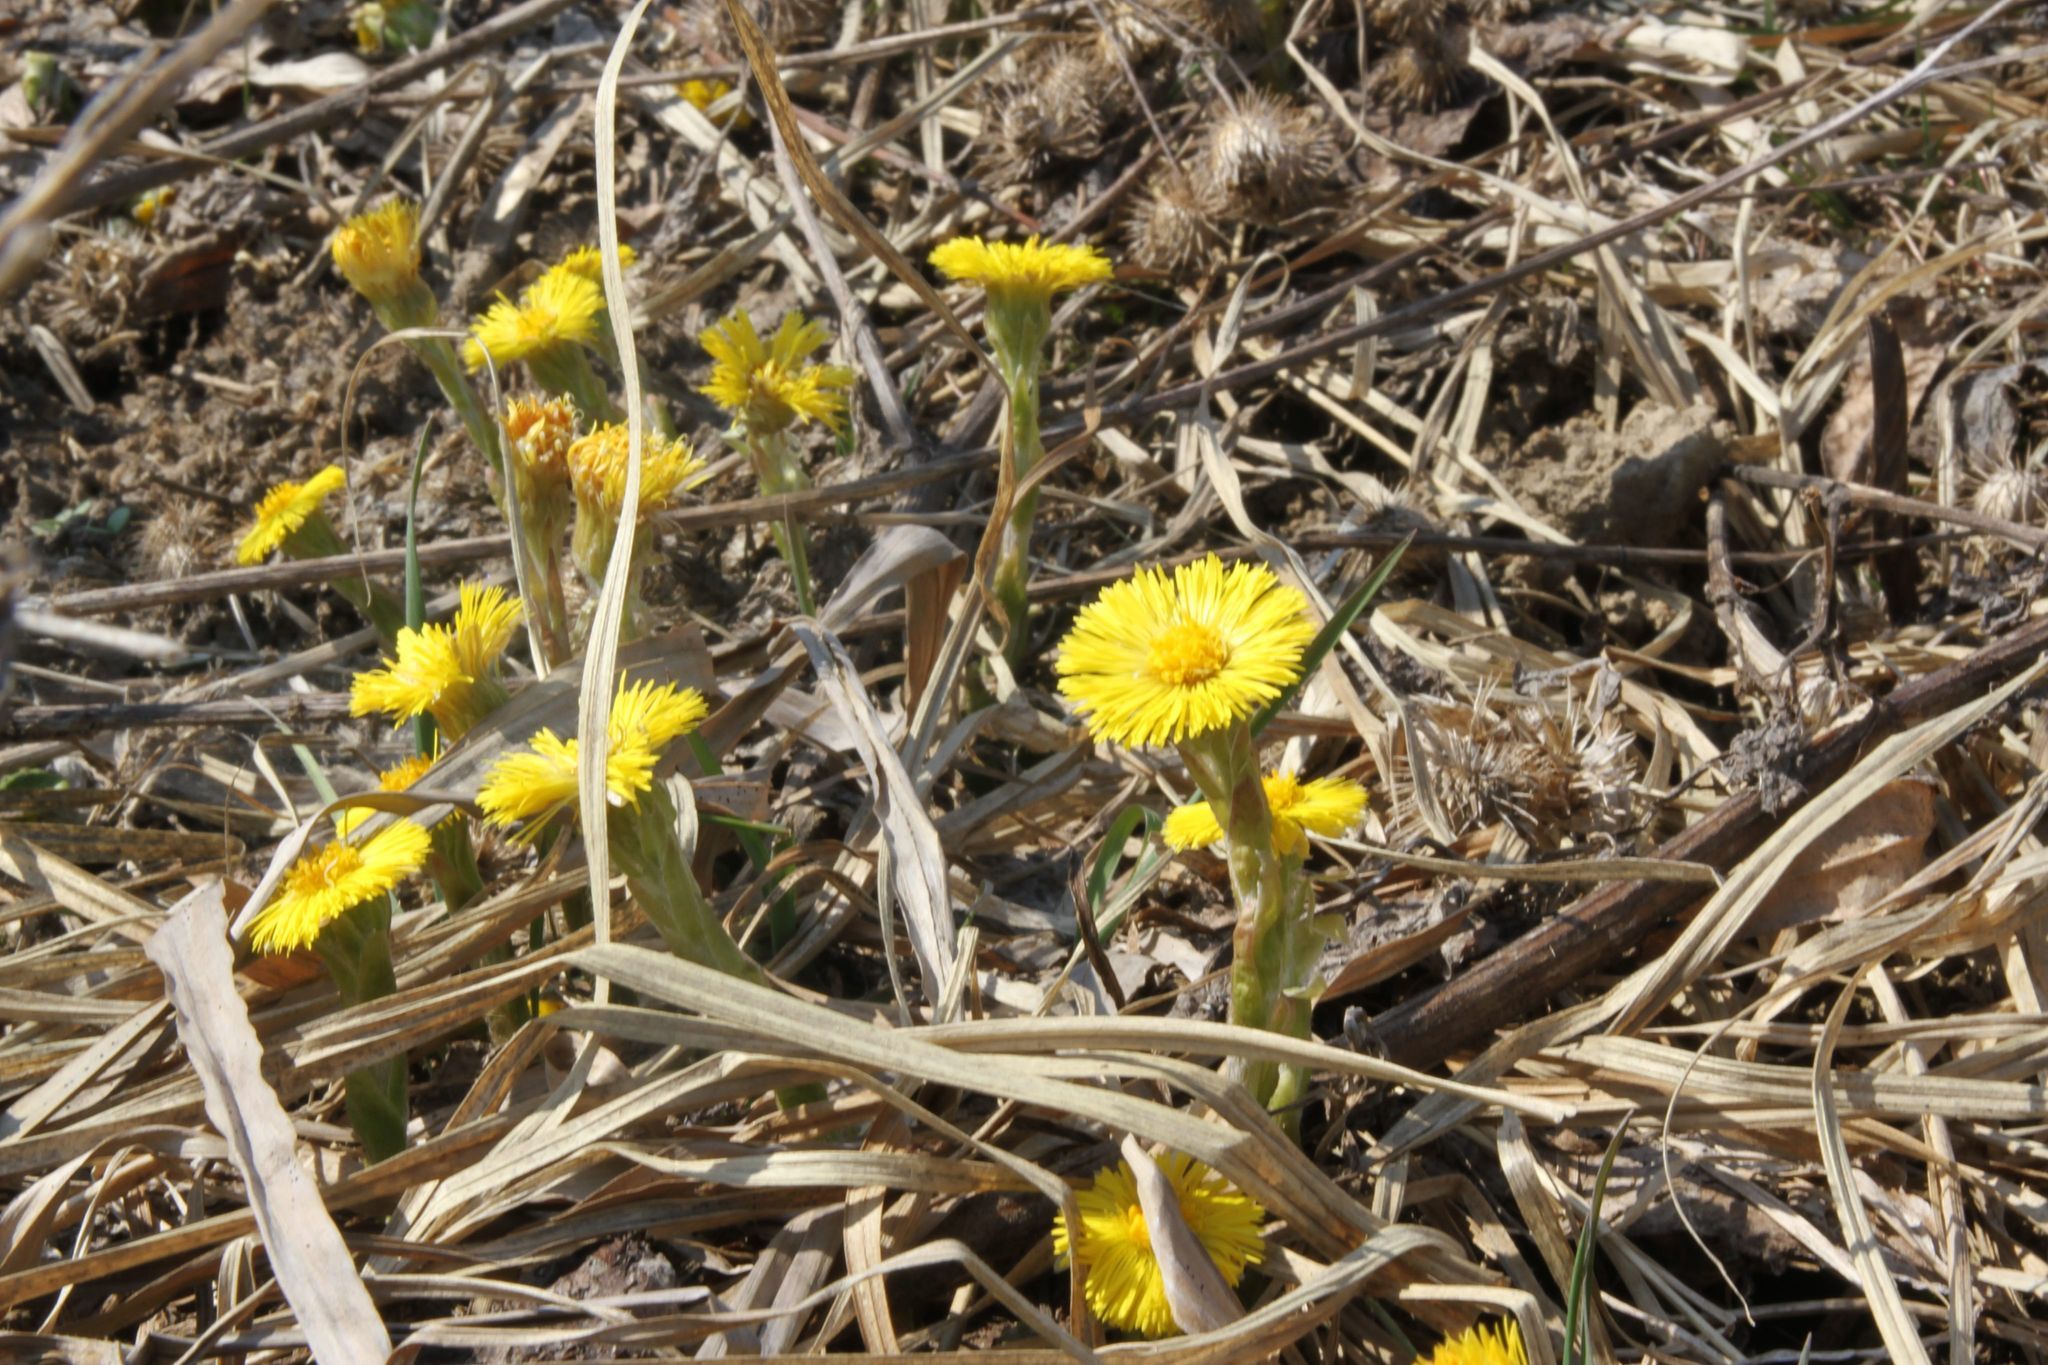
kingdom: Plantae
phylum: Tracheophyta
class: Magnoliopsida
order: Asterales
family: Asteraceae
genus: Tussilago
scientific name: Tussilago farfara
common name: Coltsfoot
